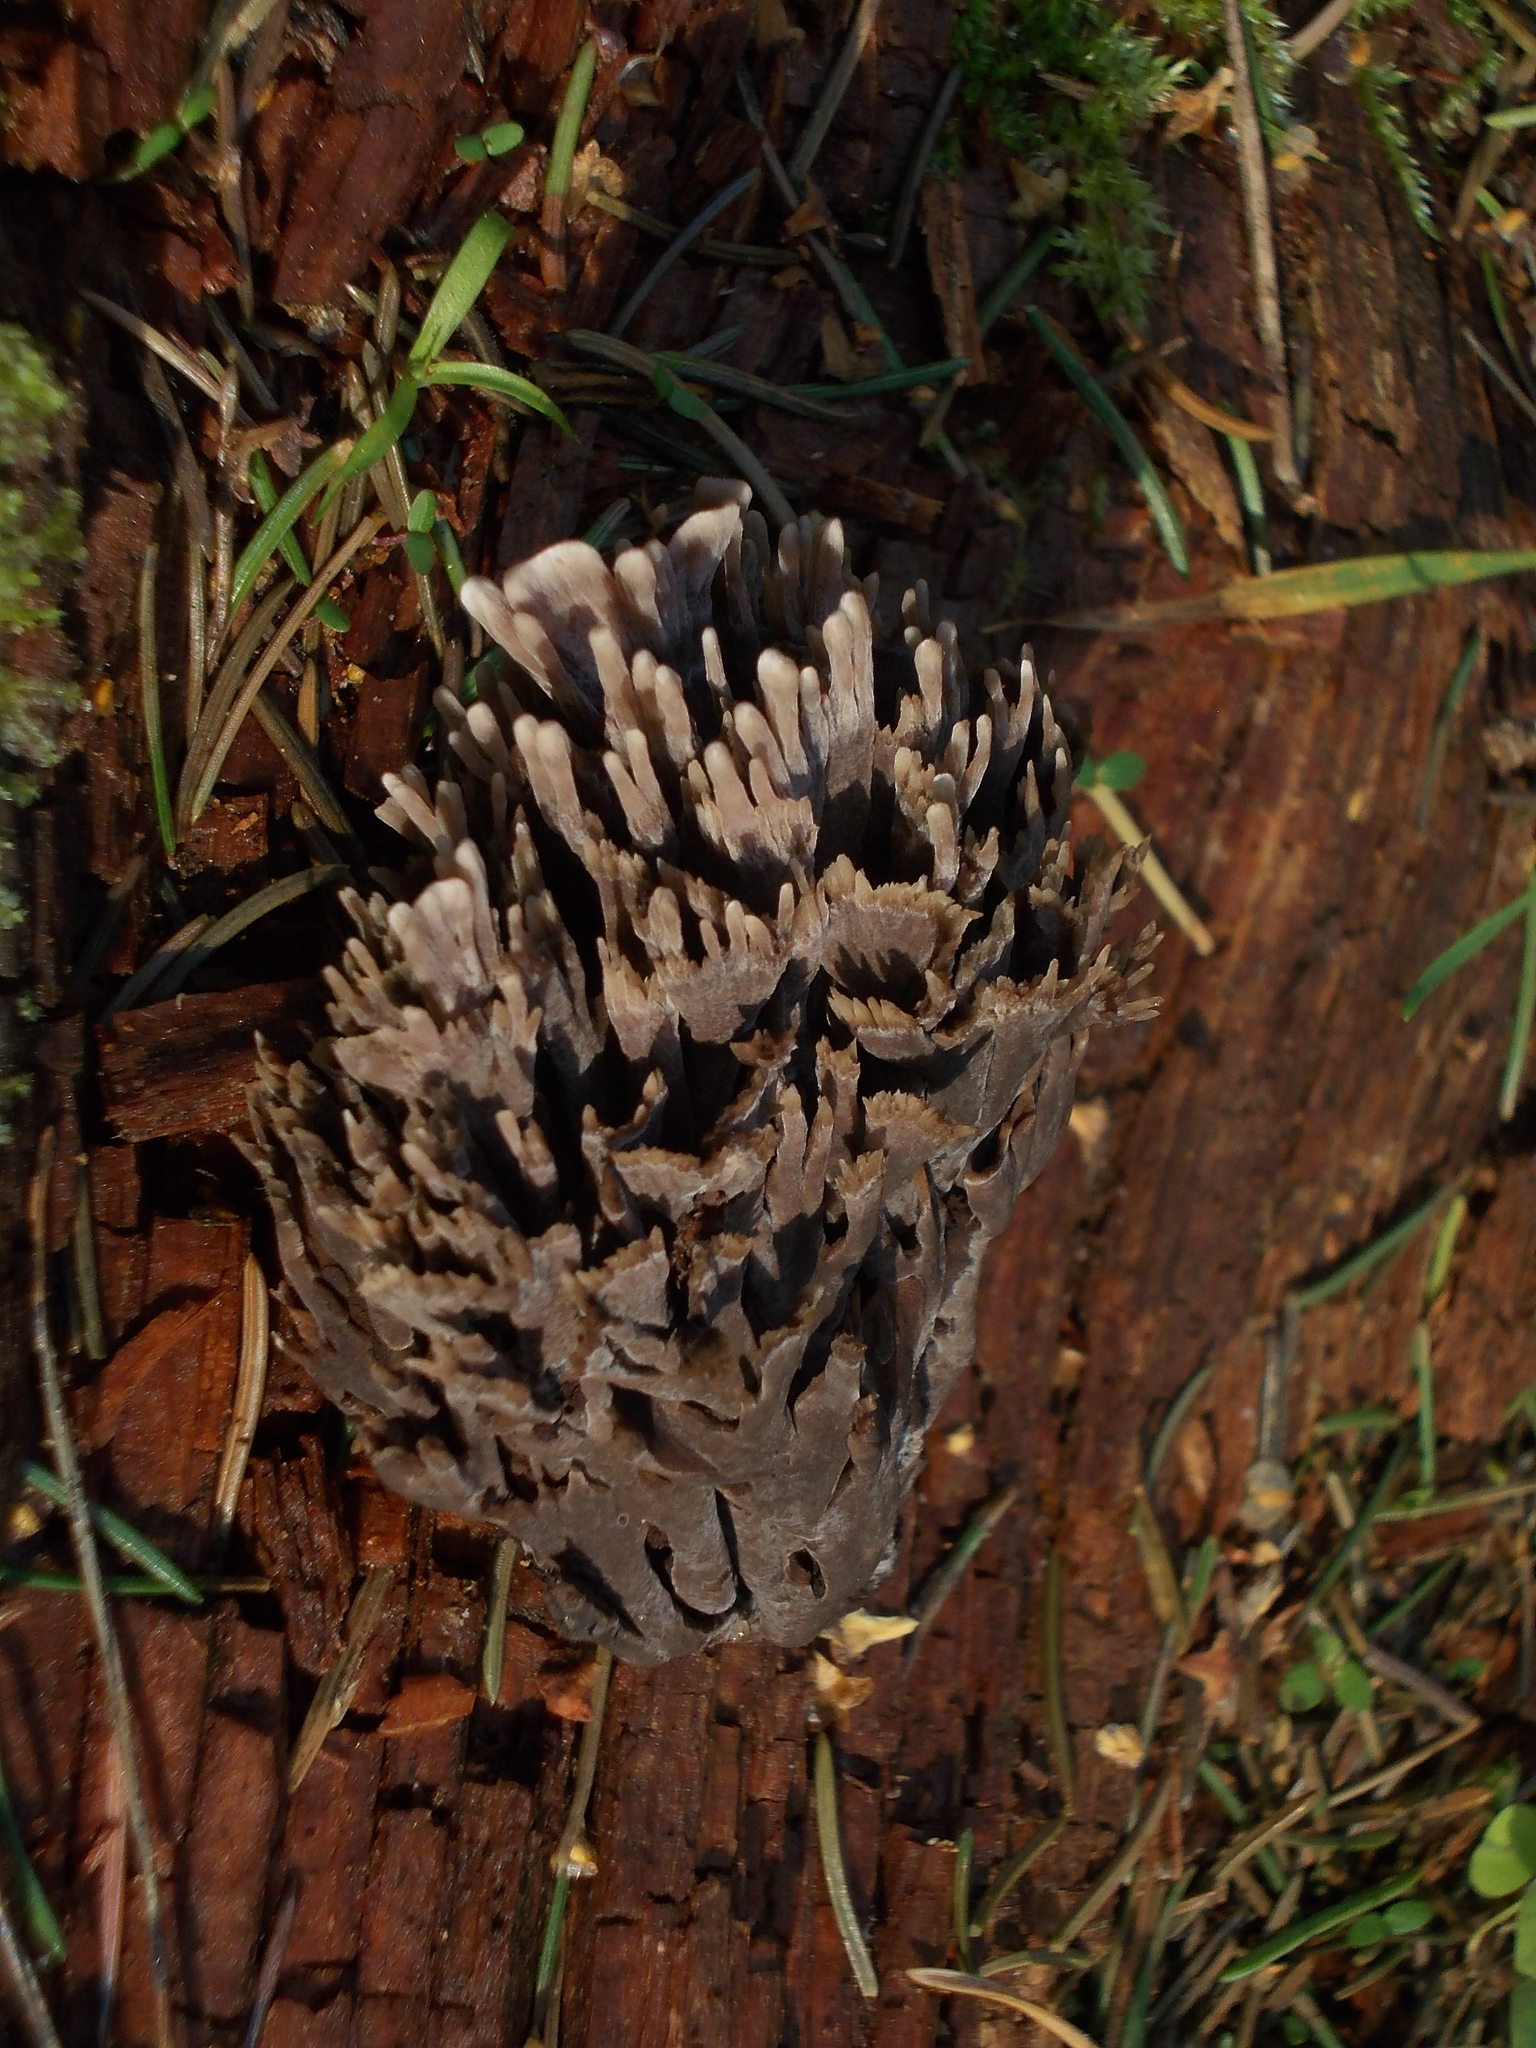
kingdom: Fungi
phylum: Basidiomycota
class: Agaricomycetes
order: Thelephorales
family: Thelephoraceae
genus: Thelephora
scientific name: Thelephora palmata
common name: Stinking earthfan
